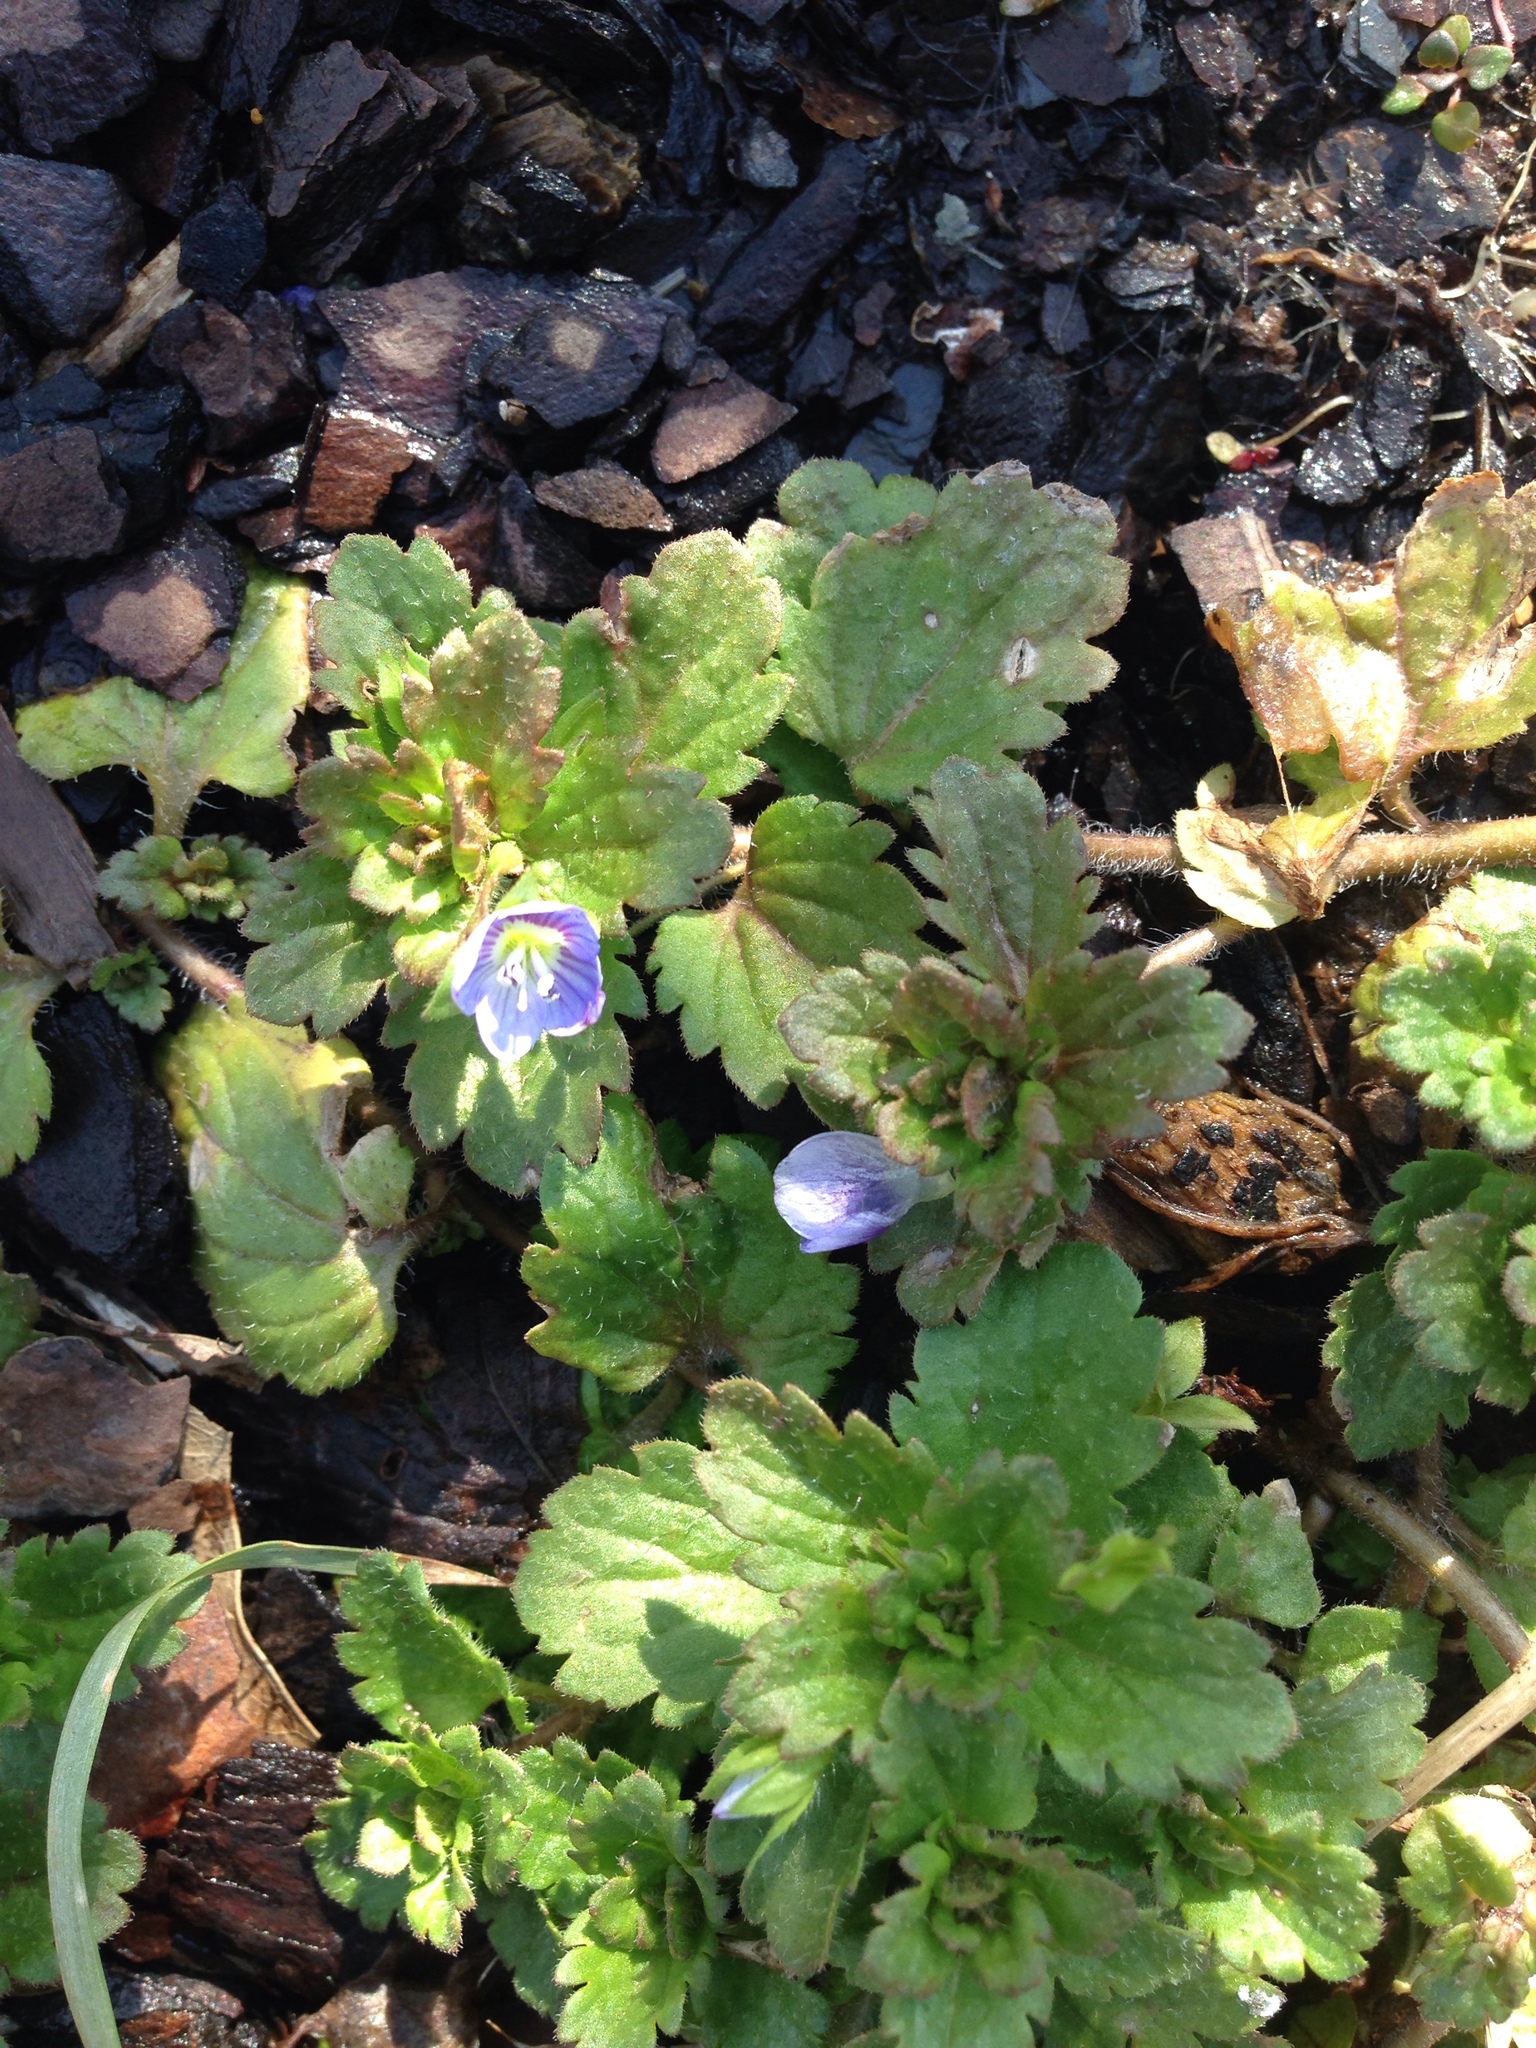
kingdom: Plantae
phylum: Tracheophyta
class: Magnoliopsida
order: Lamiales
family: Plantaginaceae
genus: Veronica
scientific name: Veronica persica
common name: Common field-speedwell
